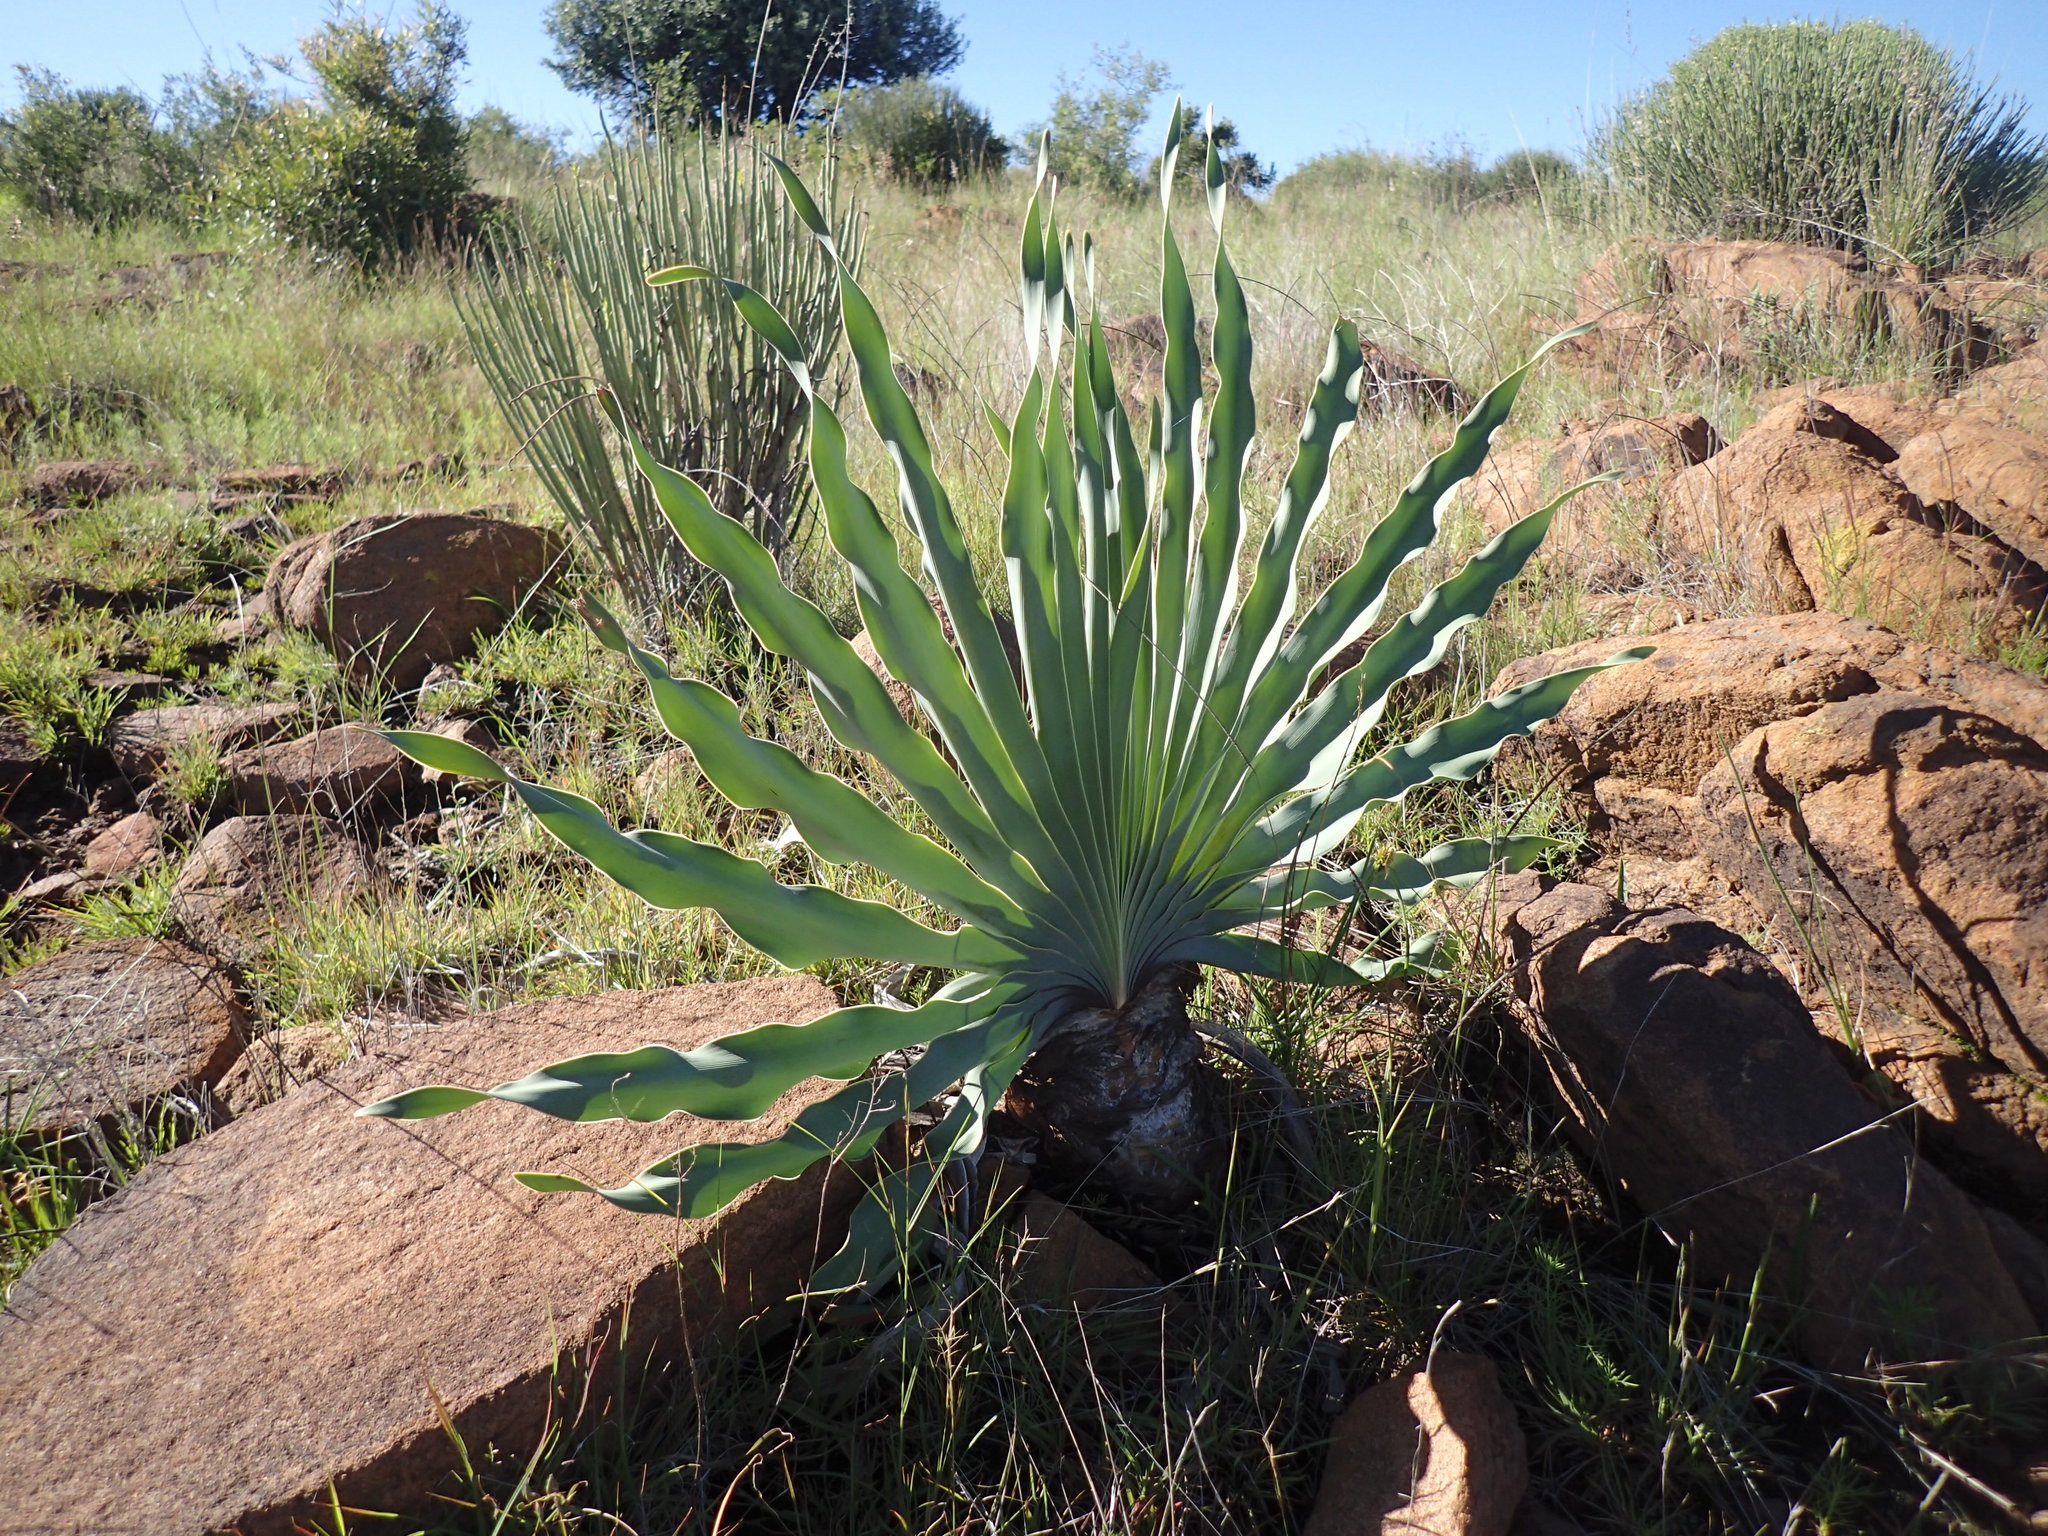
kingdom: Plantae
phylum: Tracheophyta
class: Liliopsida
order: Asparagales
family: Amaryllidaceae
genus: Boophone
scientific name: Boophone disticha
